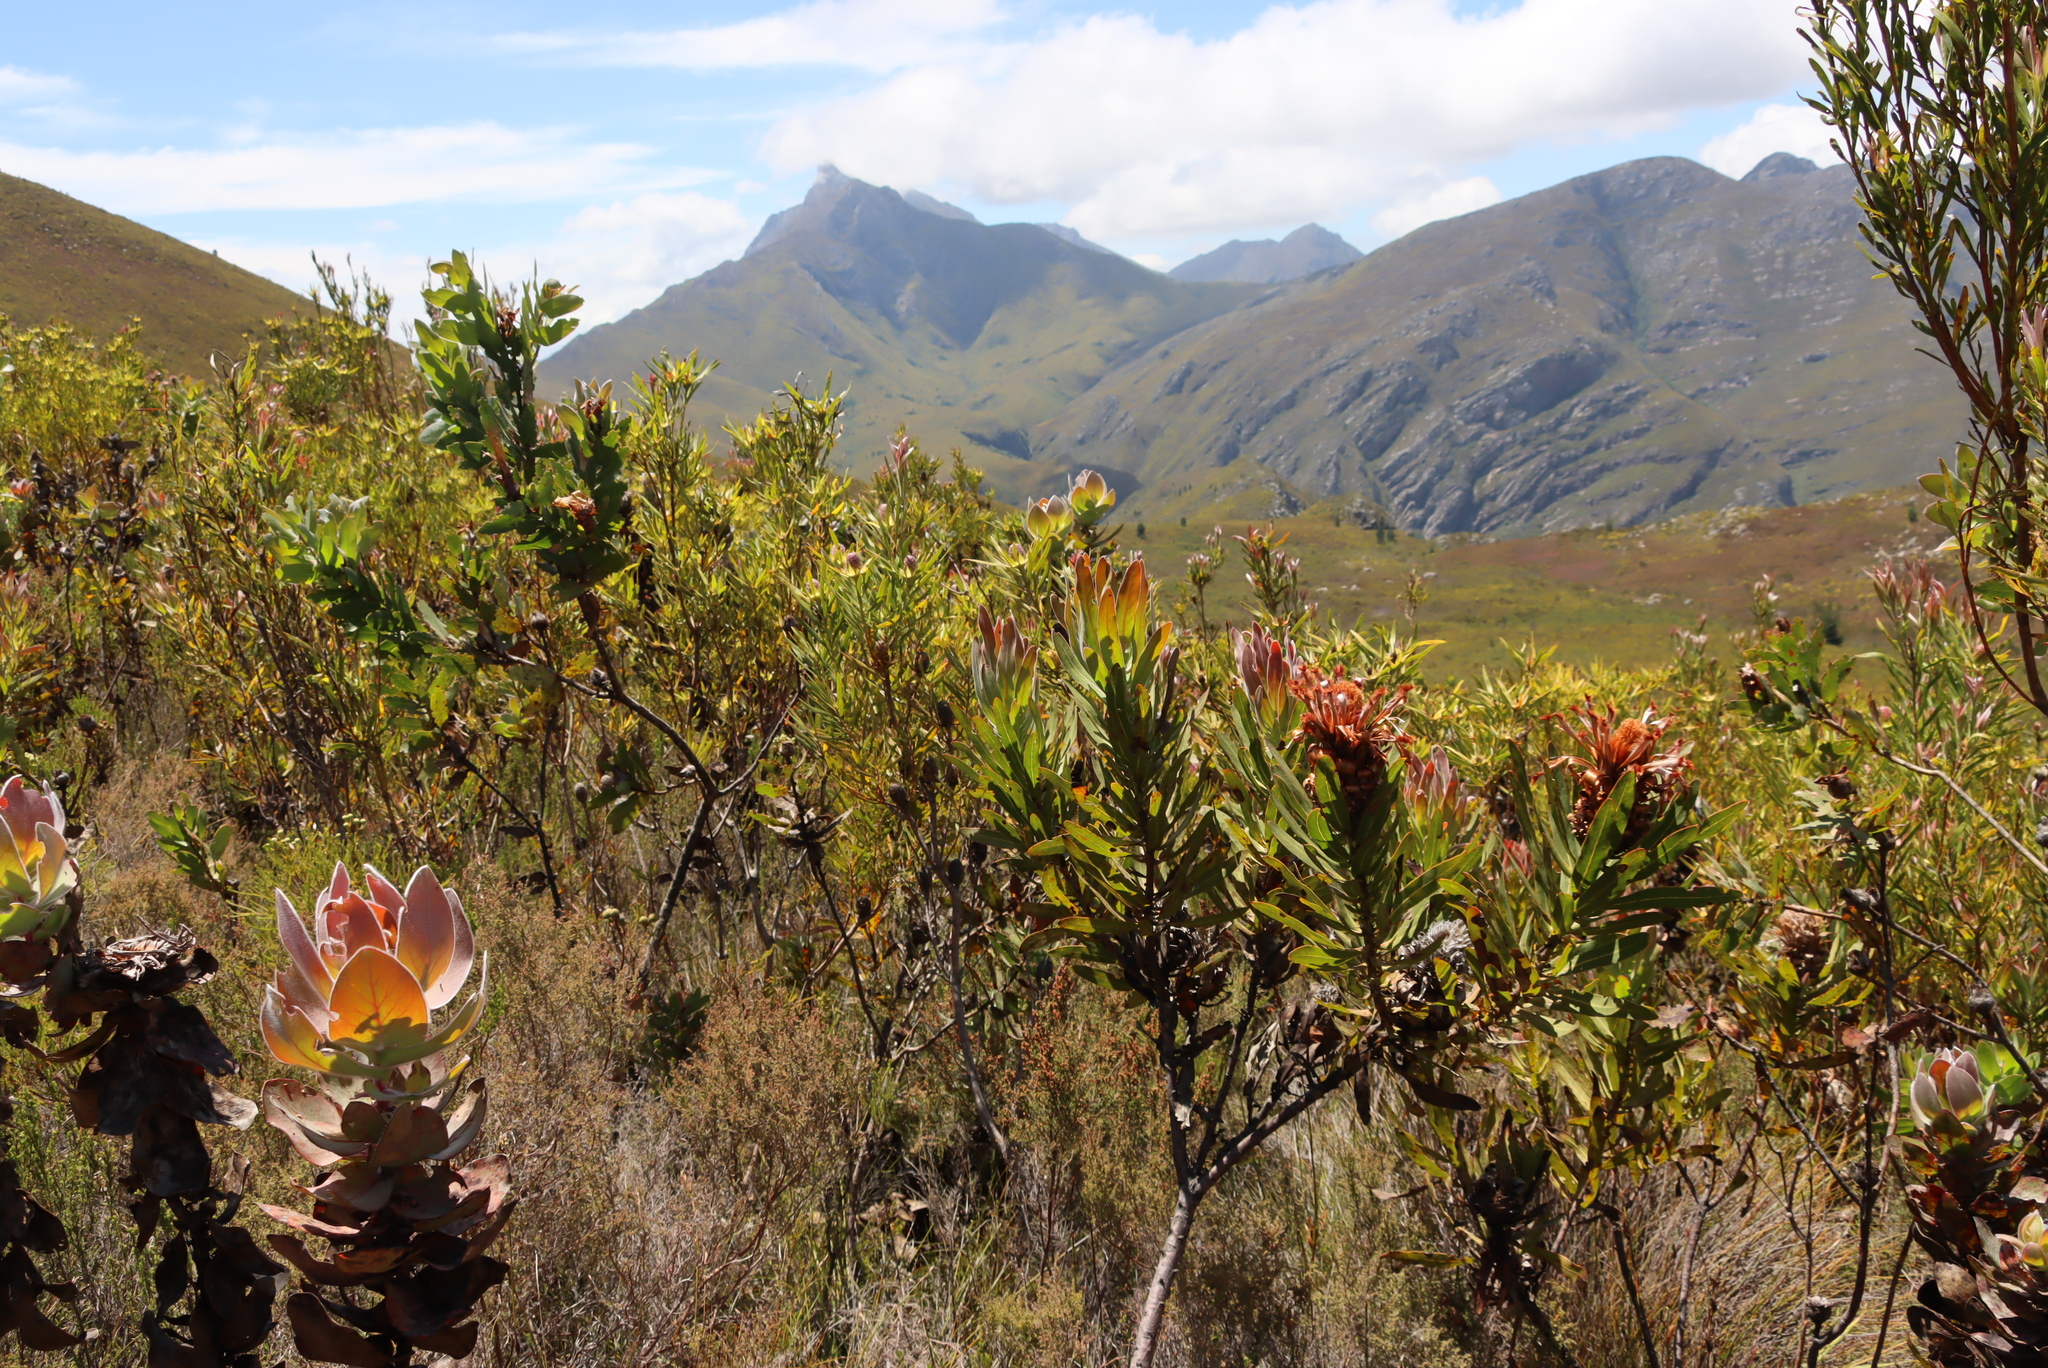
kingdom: Plantae
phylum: Tracheophyta
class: Magnoliopsida
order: Proteales
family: Proteaceae
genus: Protea
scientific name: Protea neriifolia
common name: Blue sugarbush
